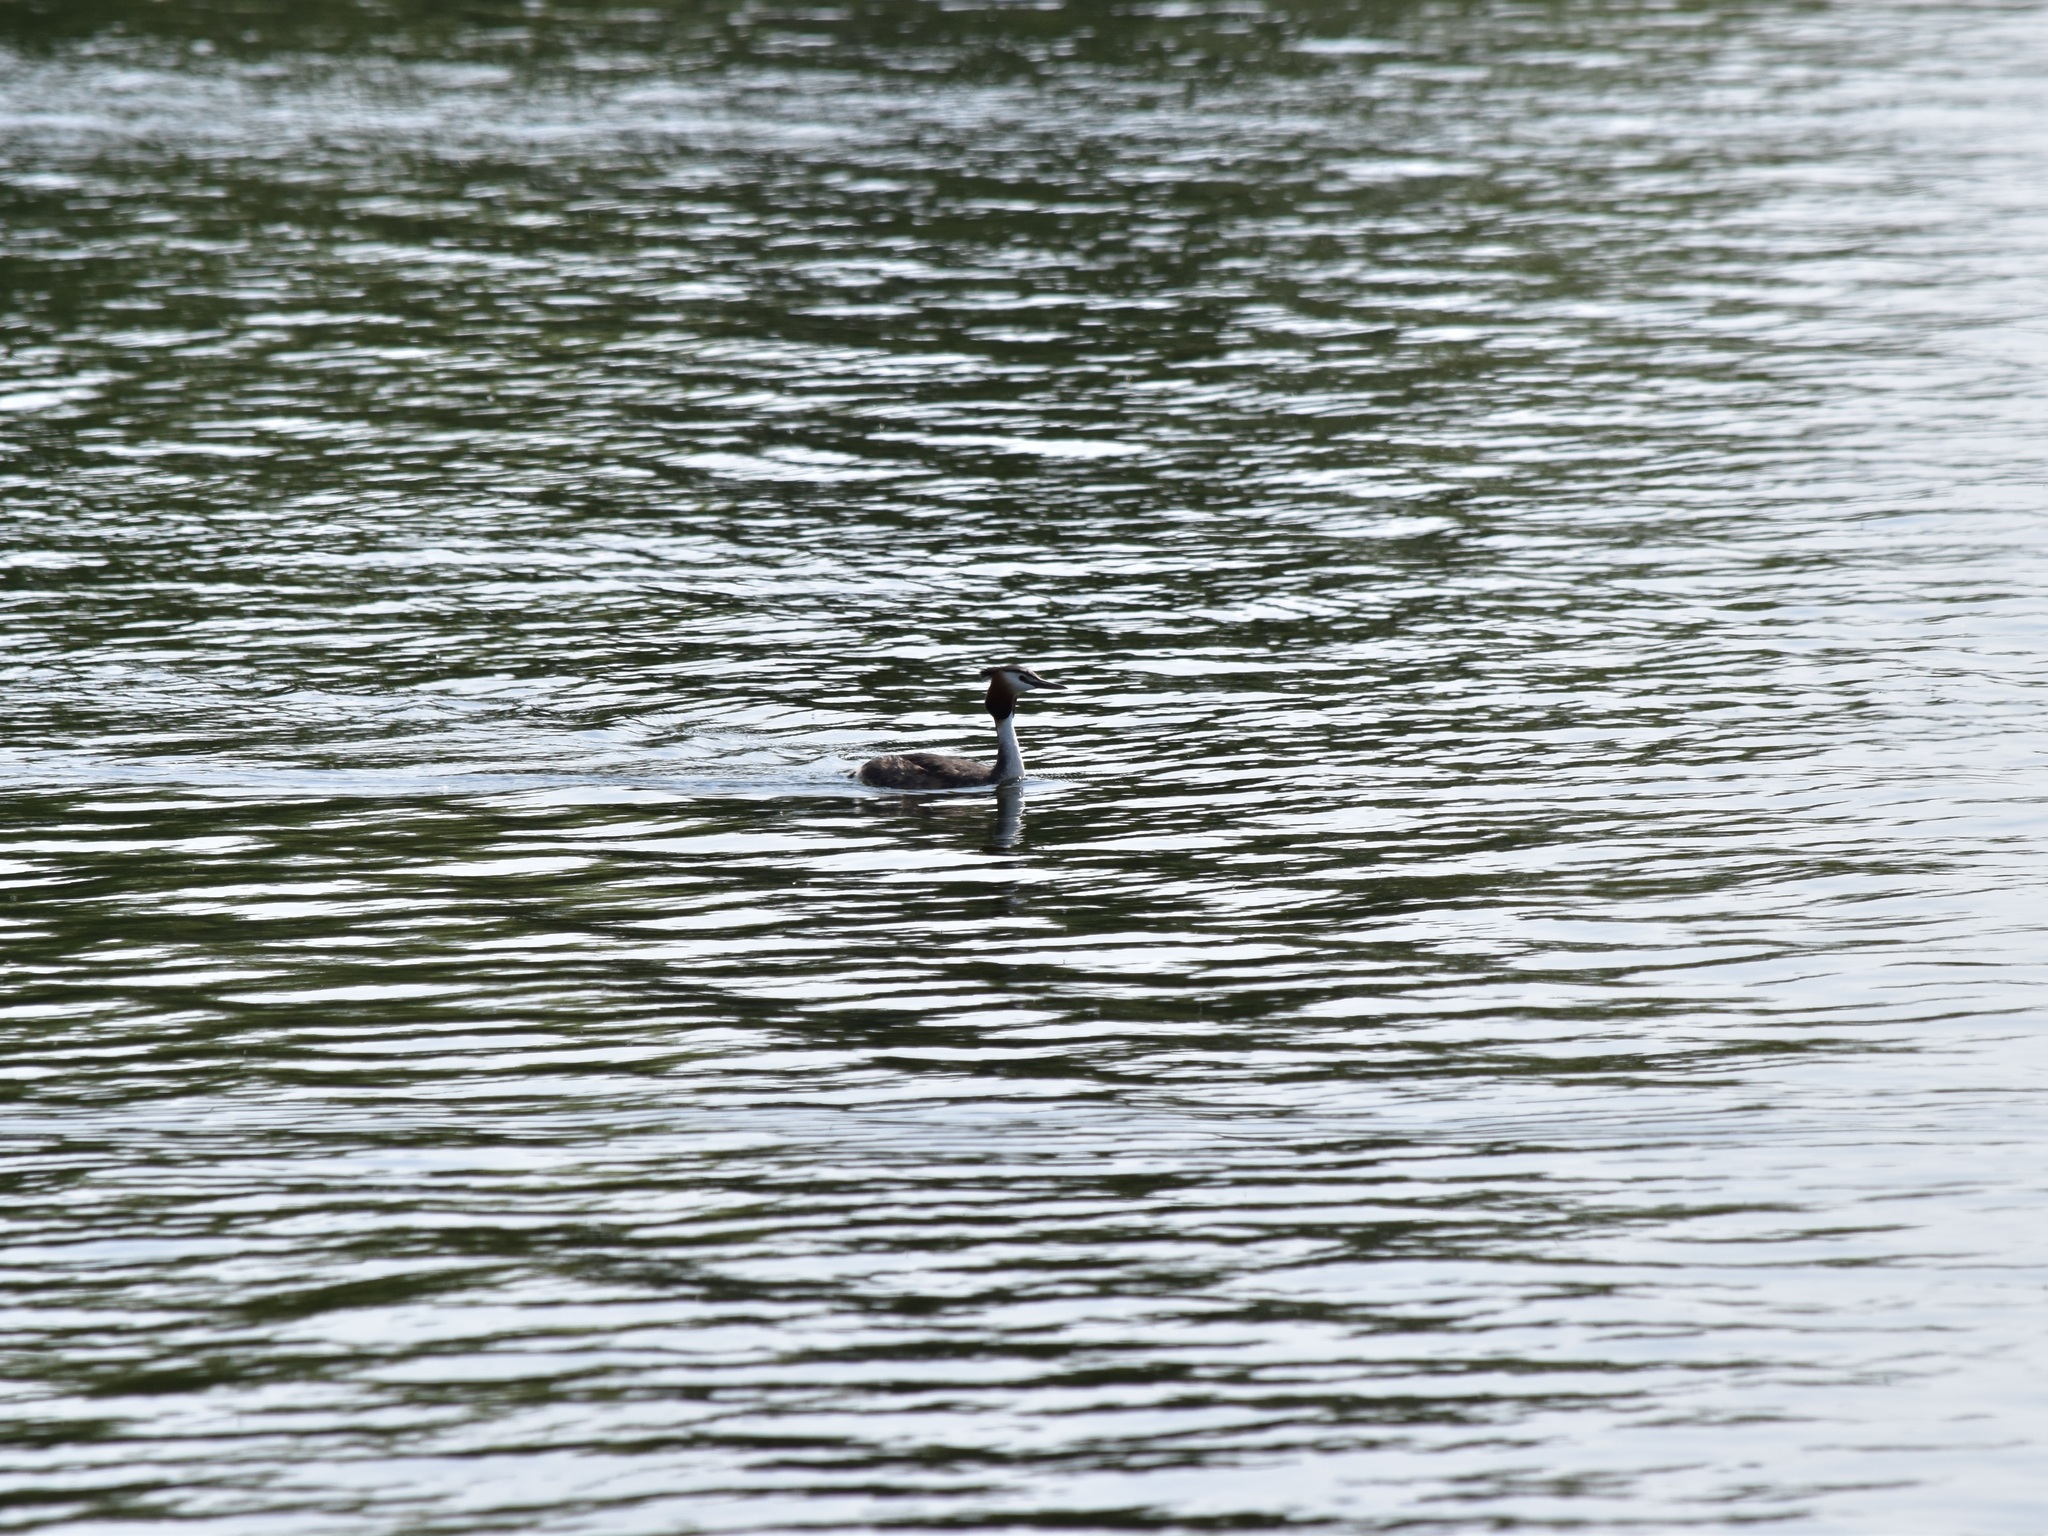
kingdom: Animalia
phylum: Chordata
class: Aves
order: Podicipediformes
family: Podicipedidae
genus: Podiceps
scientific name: Podiceps cristatus
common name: Great crested grebe
